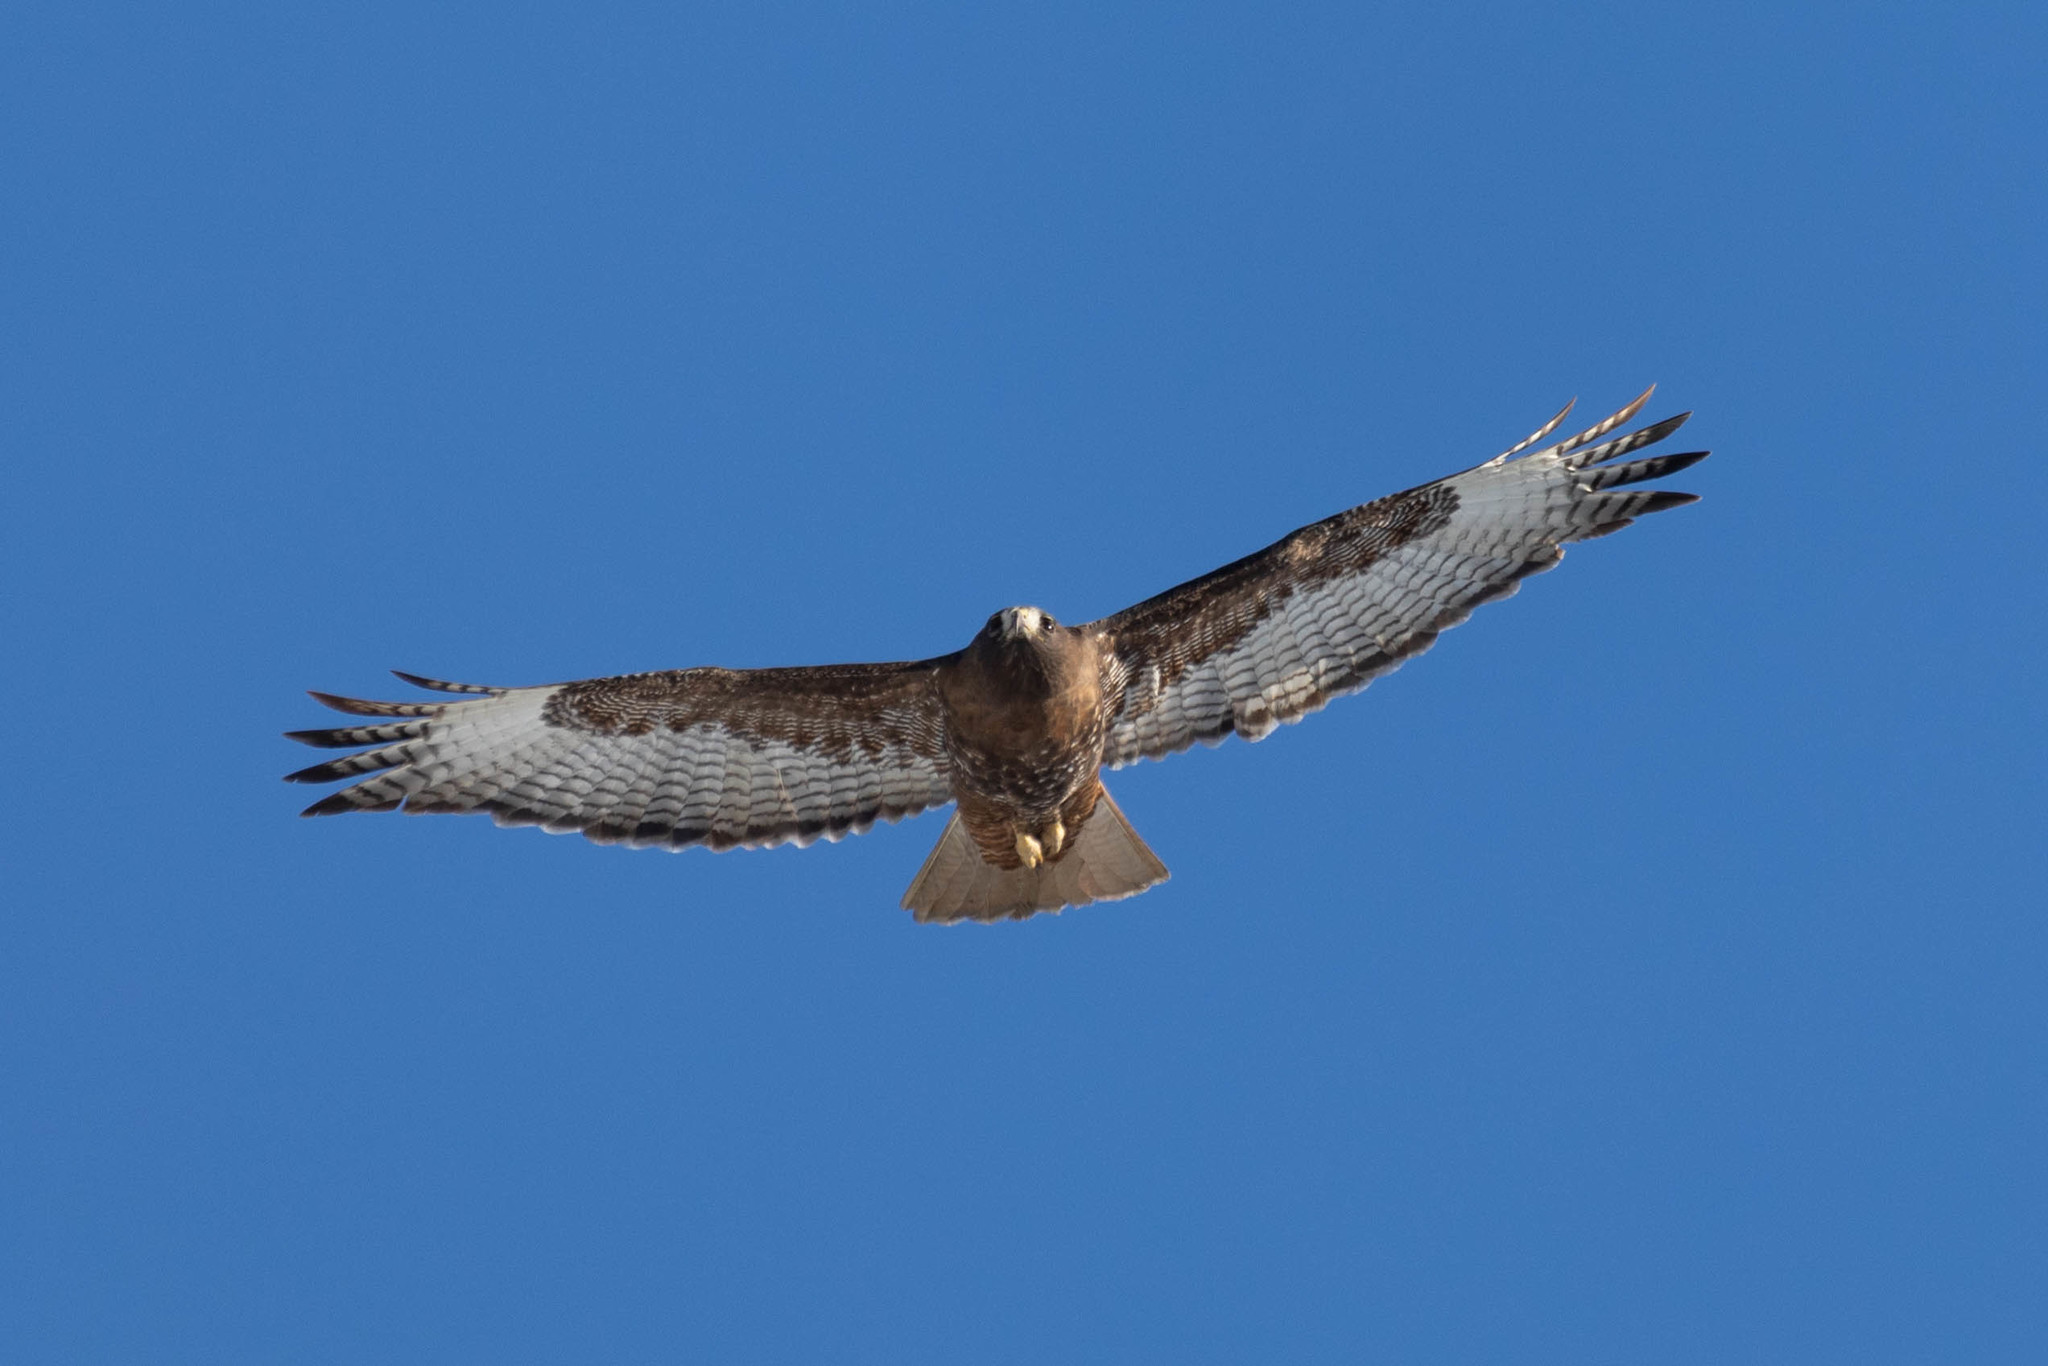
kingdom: Animalia
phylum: Chordata
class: Aves
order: Accipitriformes
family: Accipitridae
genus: Buteo
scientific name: Buteo jamaicensis
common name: Red-tailed hawk
